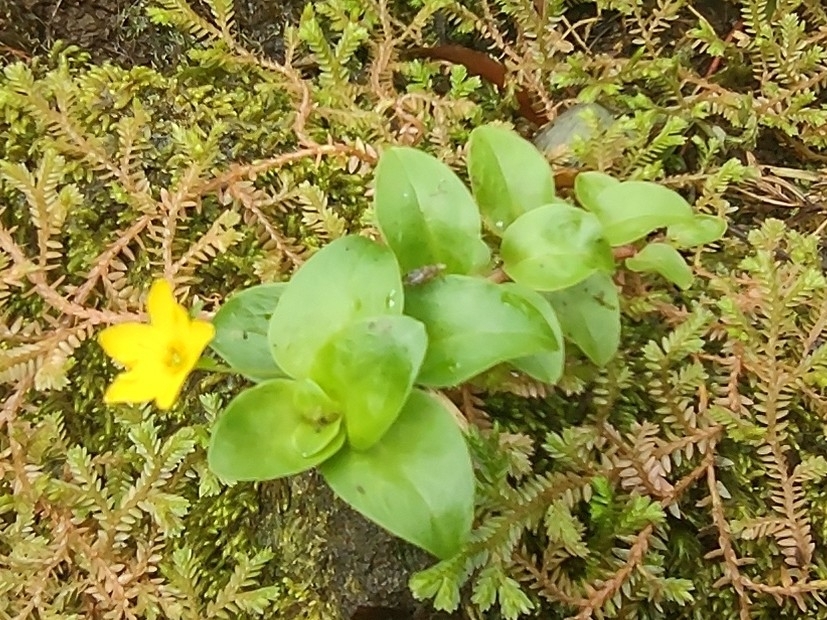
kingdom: Plantae
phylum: Tracheophyta
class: Magnoliopsida
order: Ericales
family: Primulaceae
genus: Lysimachia
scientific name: Lysimachia azorica
